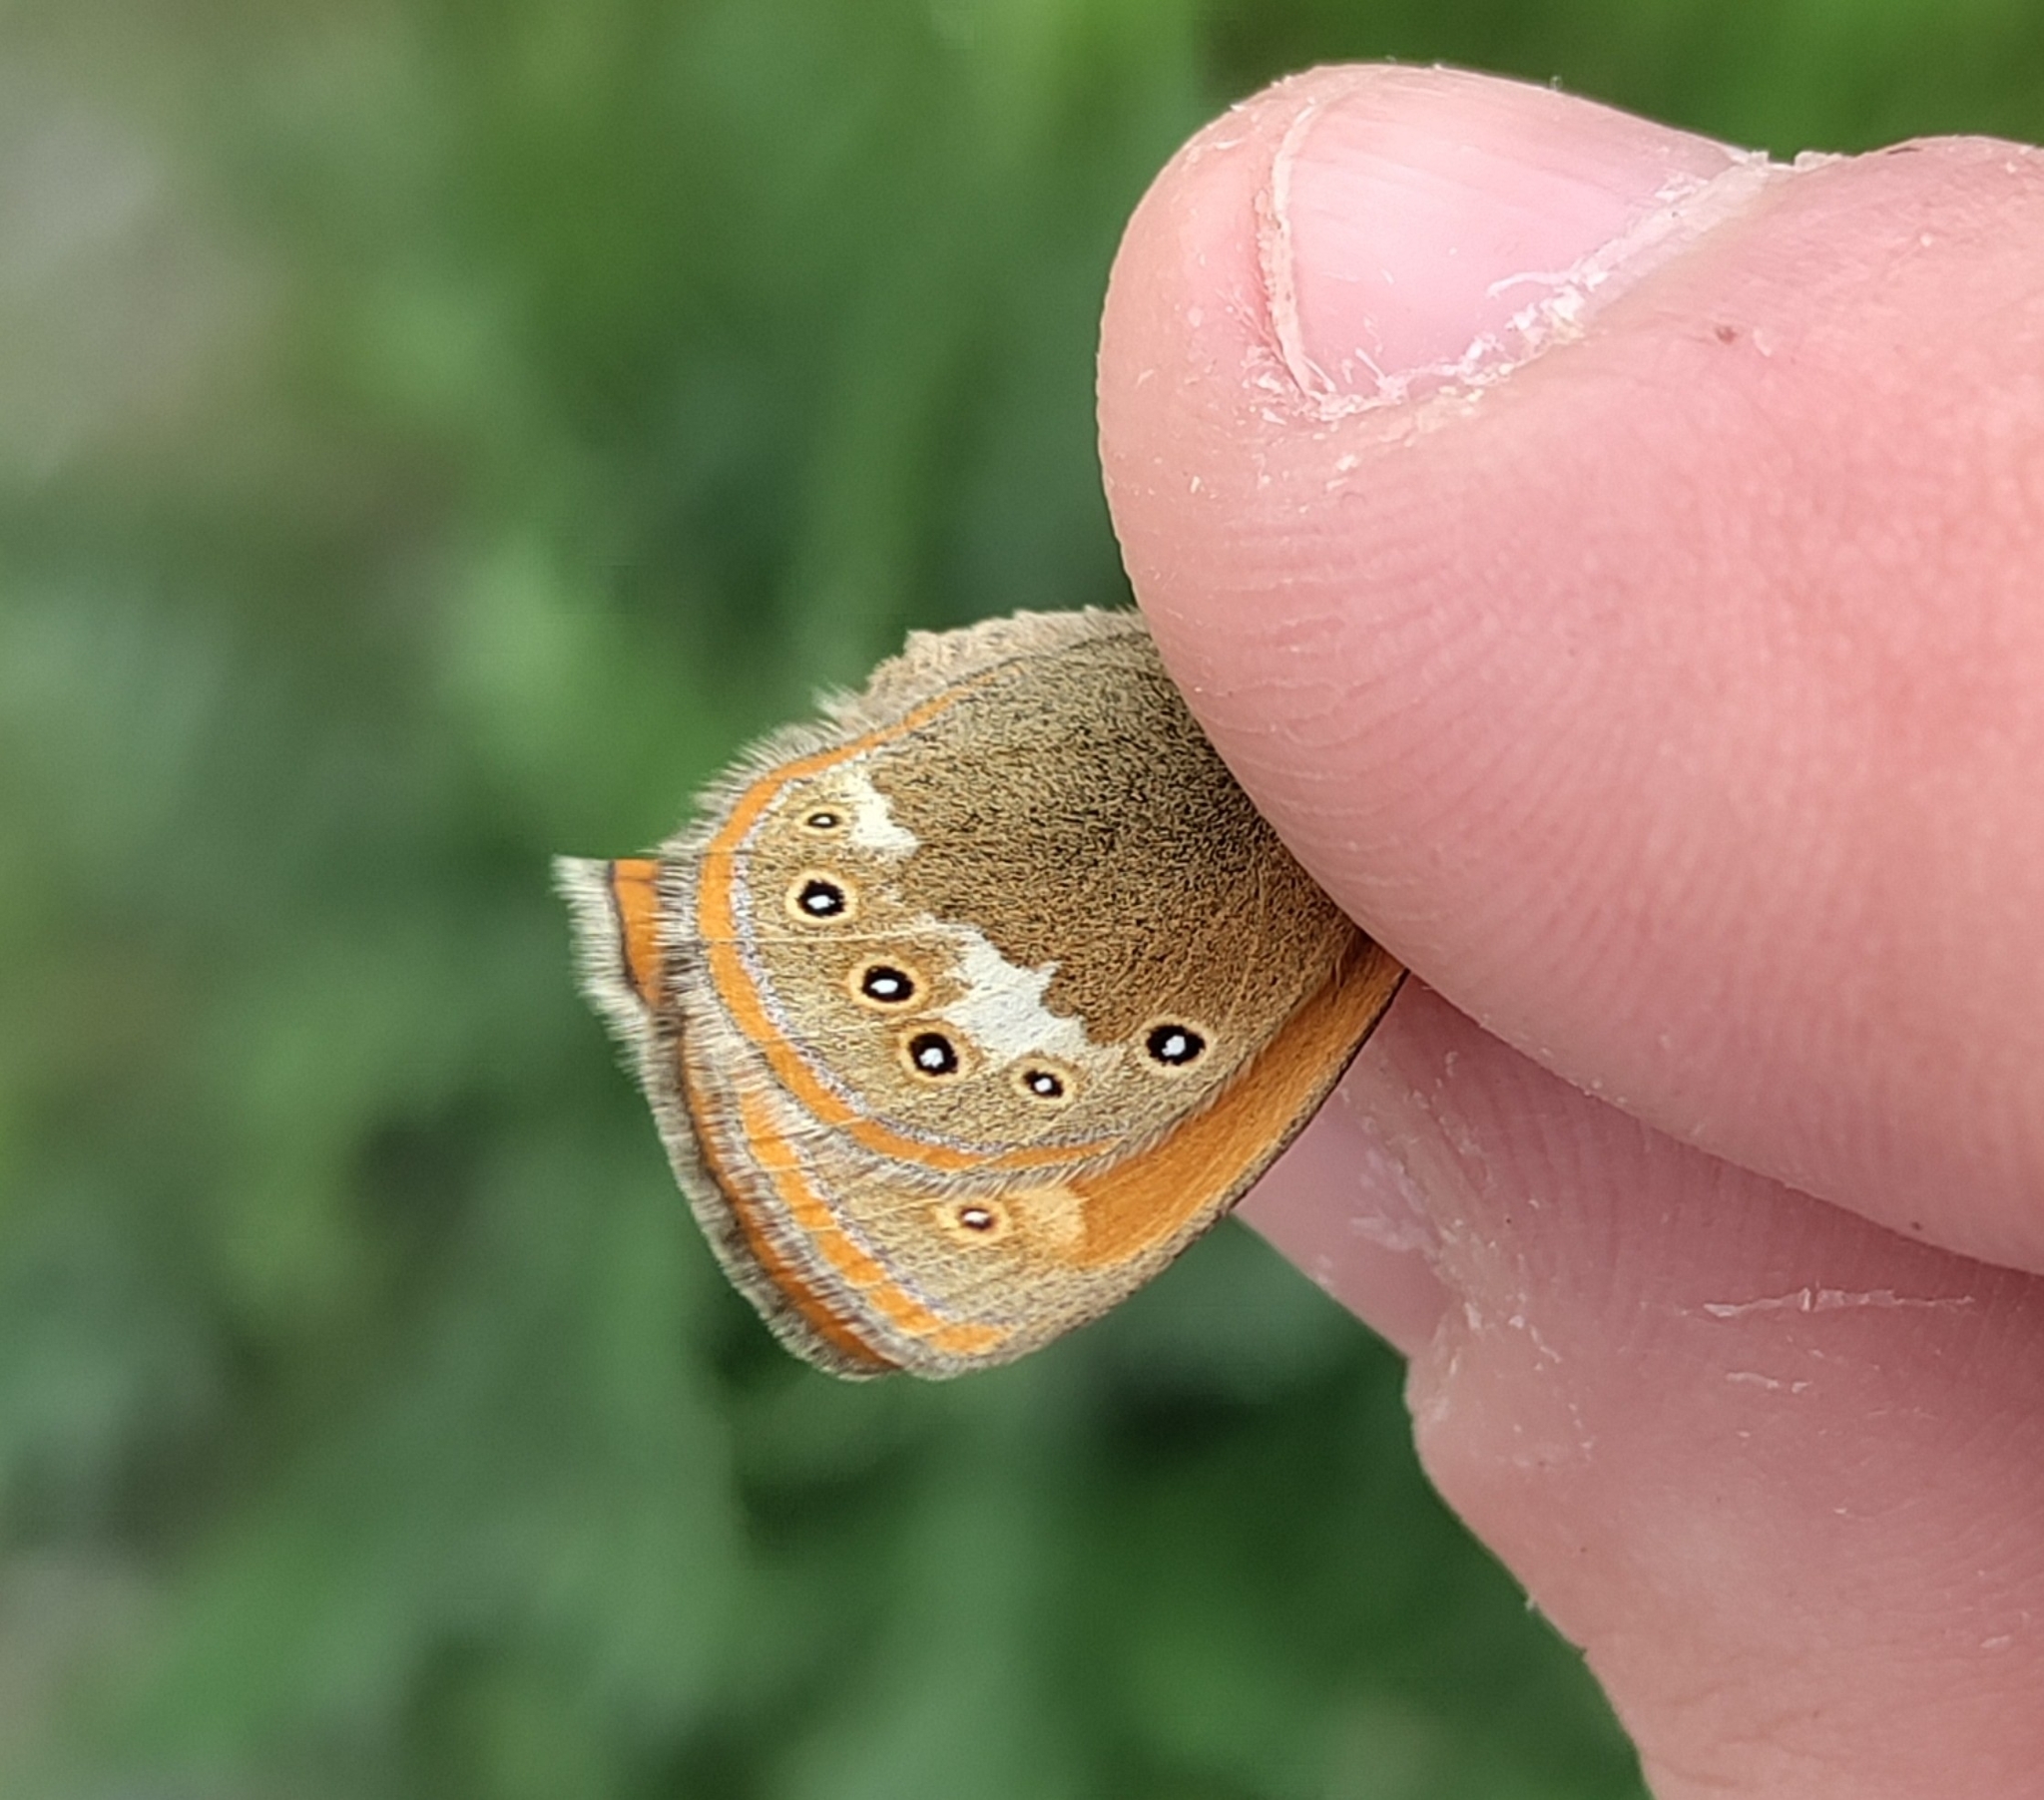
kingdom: Animalia
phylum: Arthropoda
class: Insecta
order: Lepidoptera
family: Nymphalidae
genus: Coenonympha
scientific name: Coenonympha iphis
